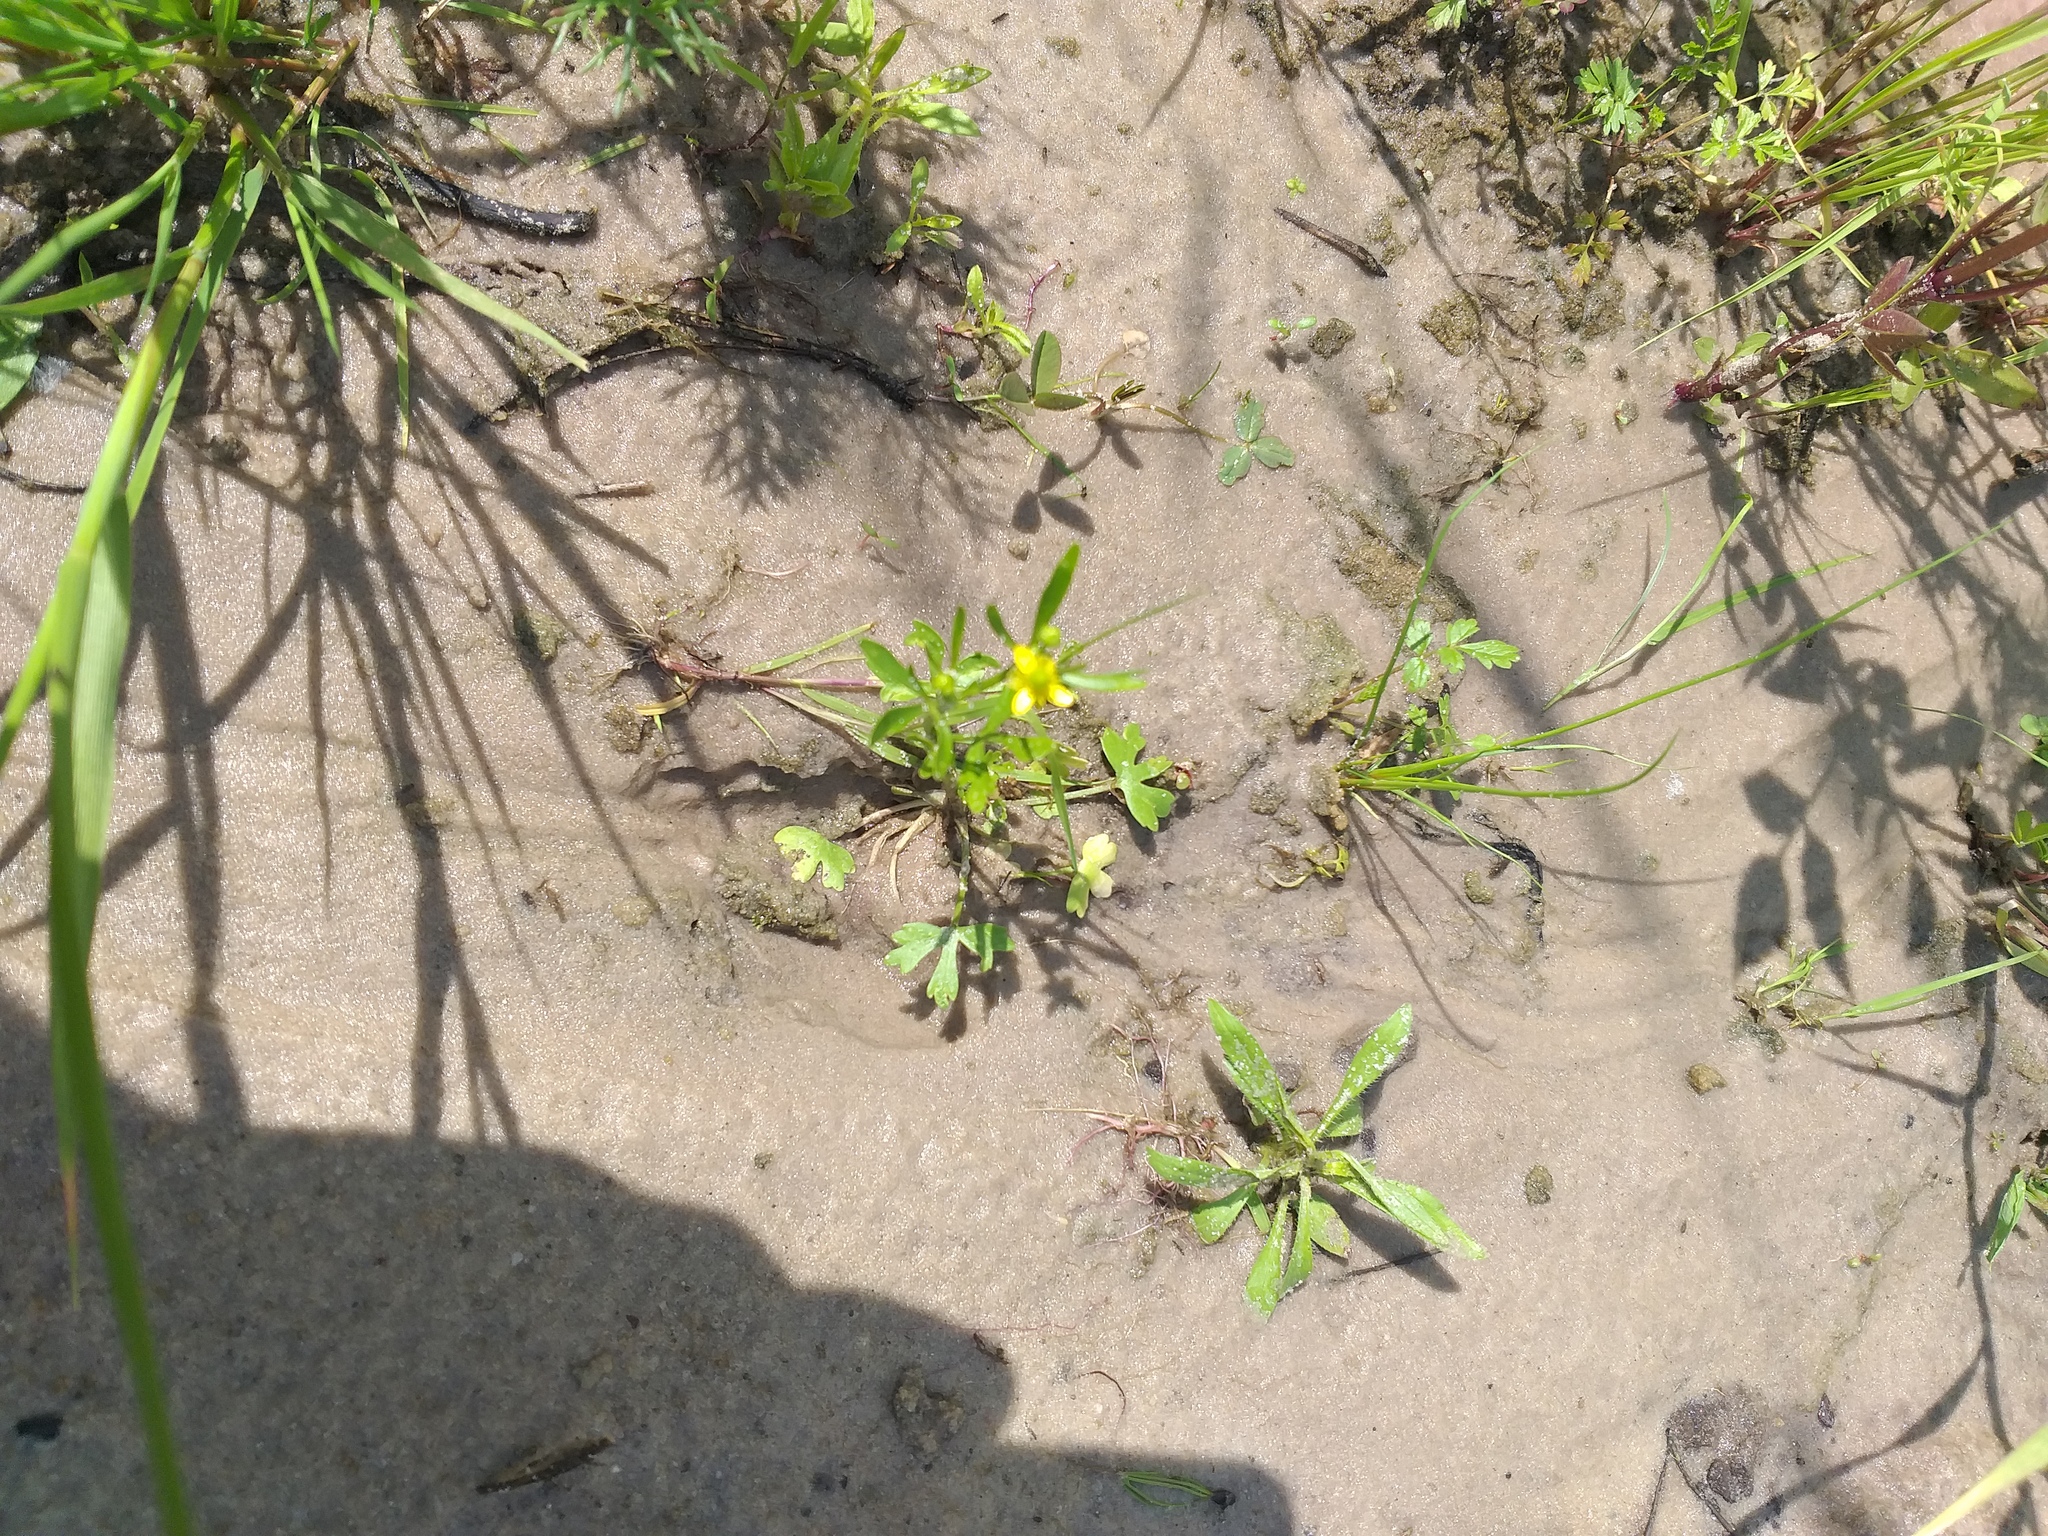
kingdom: Plantae
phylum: Tracheophyta
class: Magnoliopsida
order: Ranunculales
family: Ranunculaceae
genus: Ranunculus
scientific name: Ranunculus sceleratus
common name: Celery-leaved buttercup
